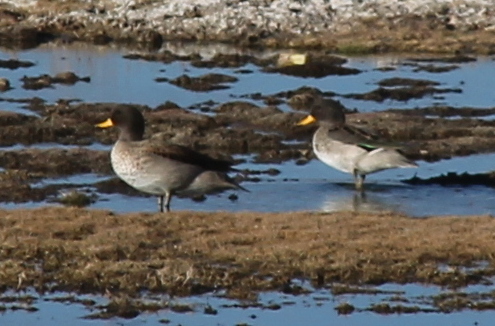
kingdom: Animalia
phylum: Chordata
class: Aves
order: Anseriformes
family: Anatidae
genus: Anas
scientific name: Anas flavirostris
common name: Yellow-billed teal
